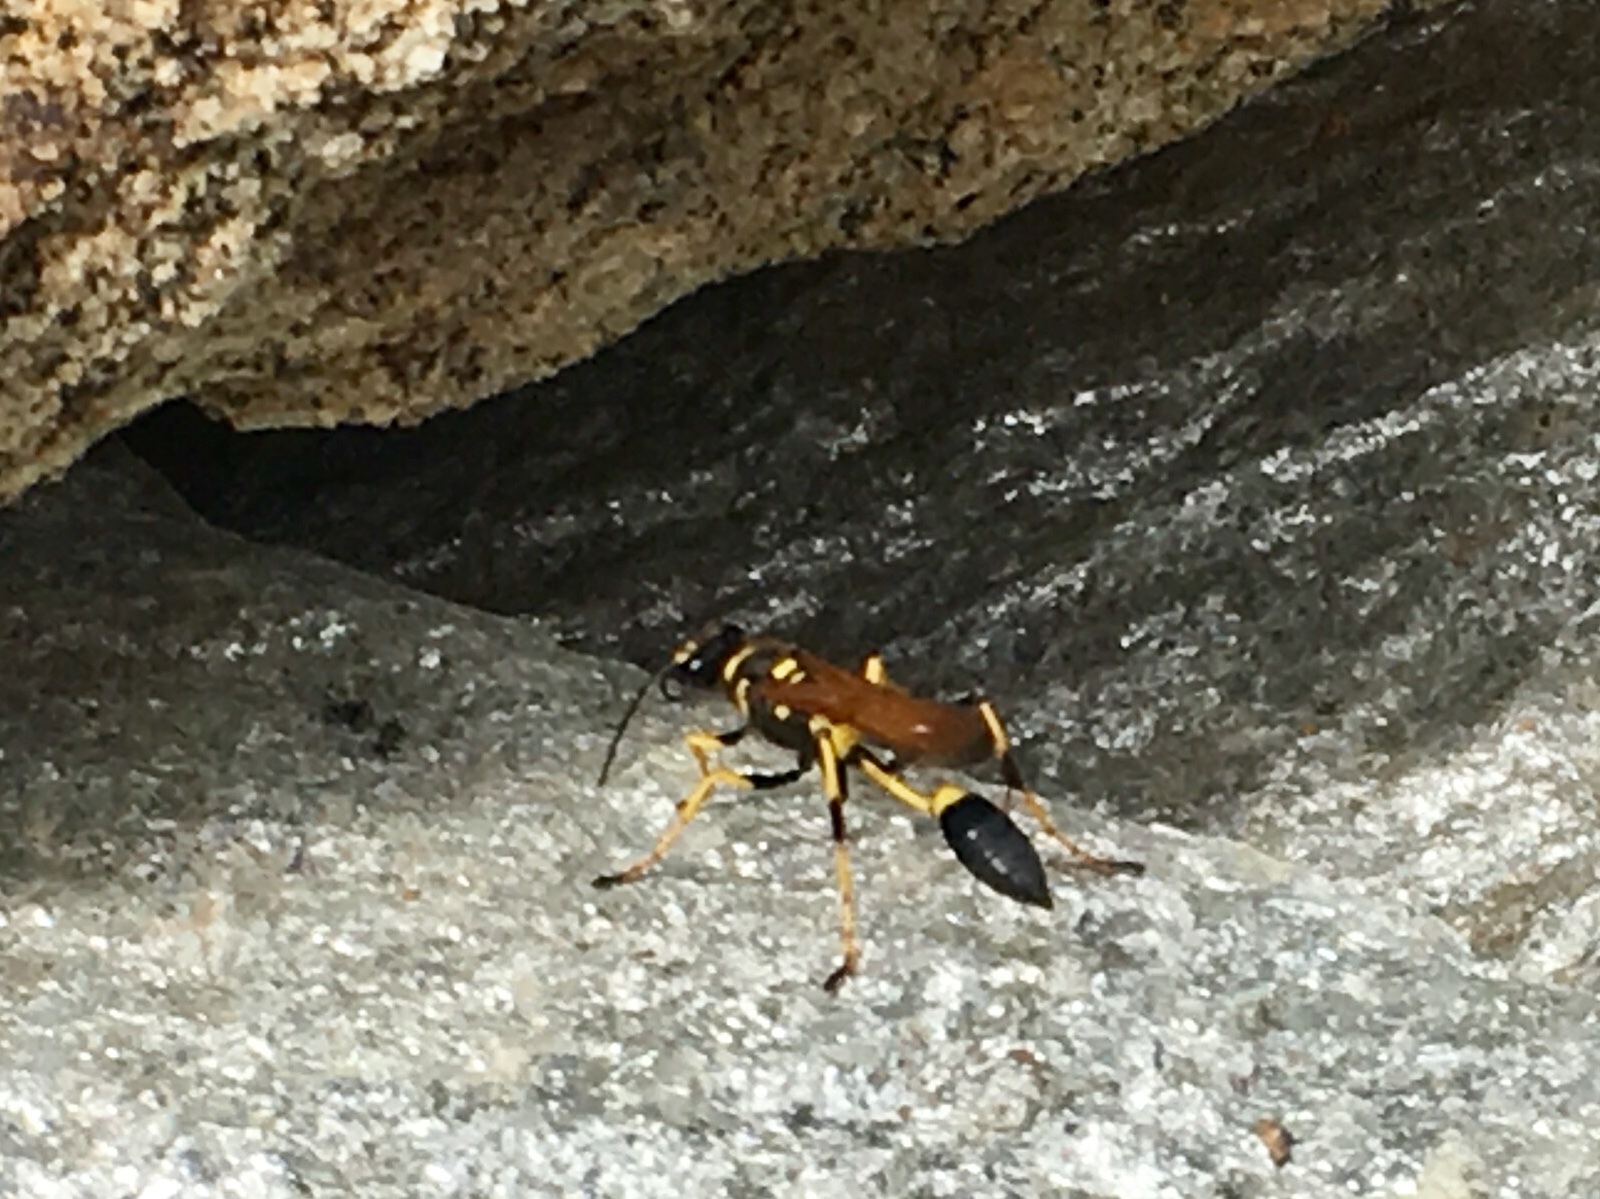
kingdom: Animalia
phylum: Arthropoda
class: Insecta
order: Hymenoptera
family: Sphecidae
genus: Sceliphron
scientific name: Sceliphron caementarium
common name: Mud dauber
